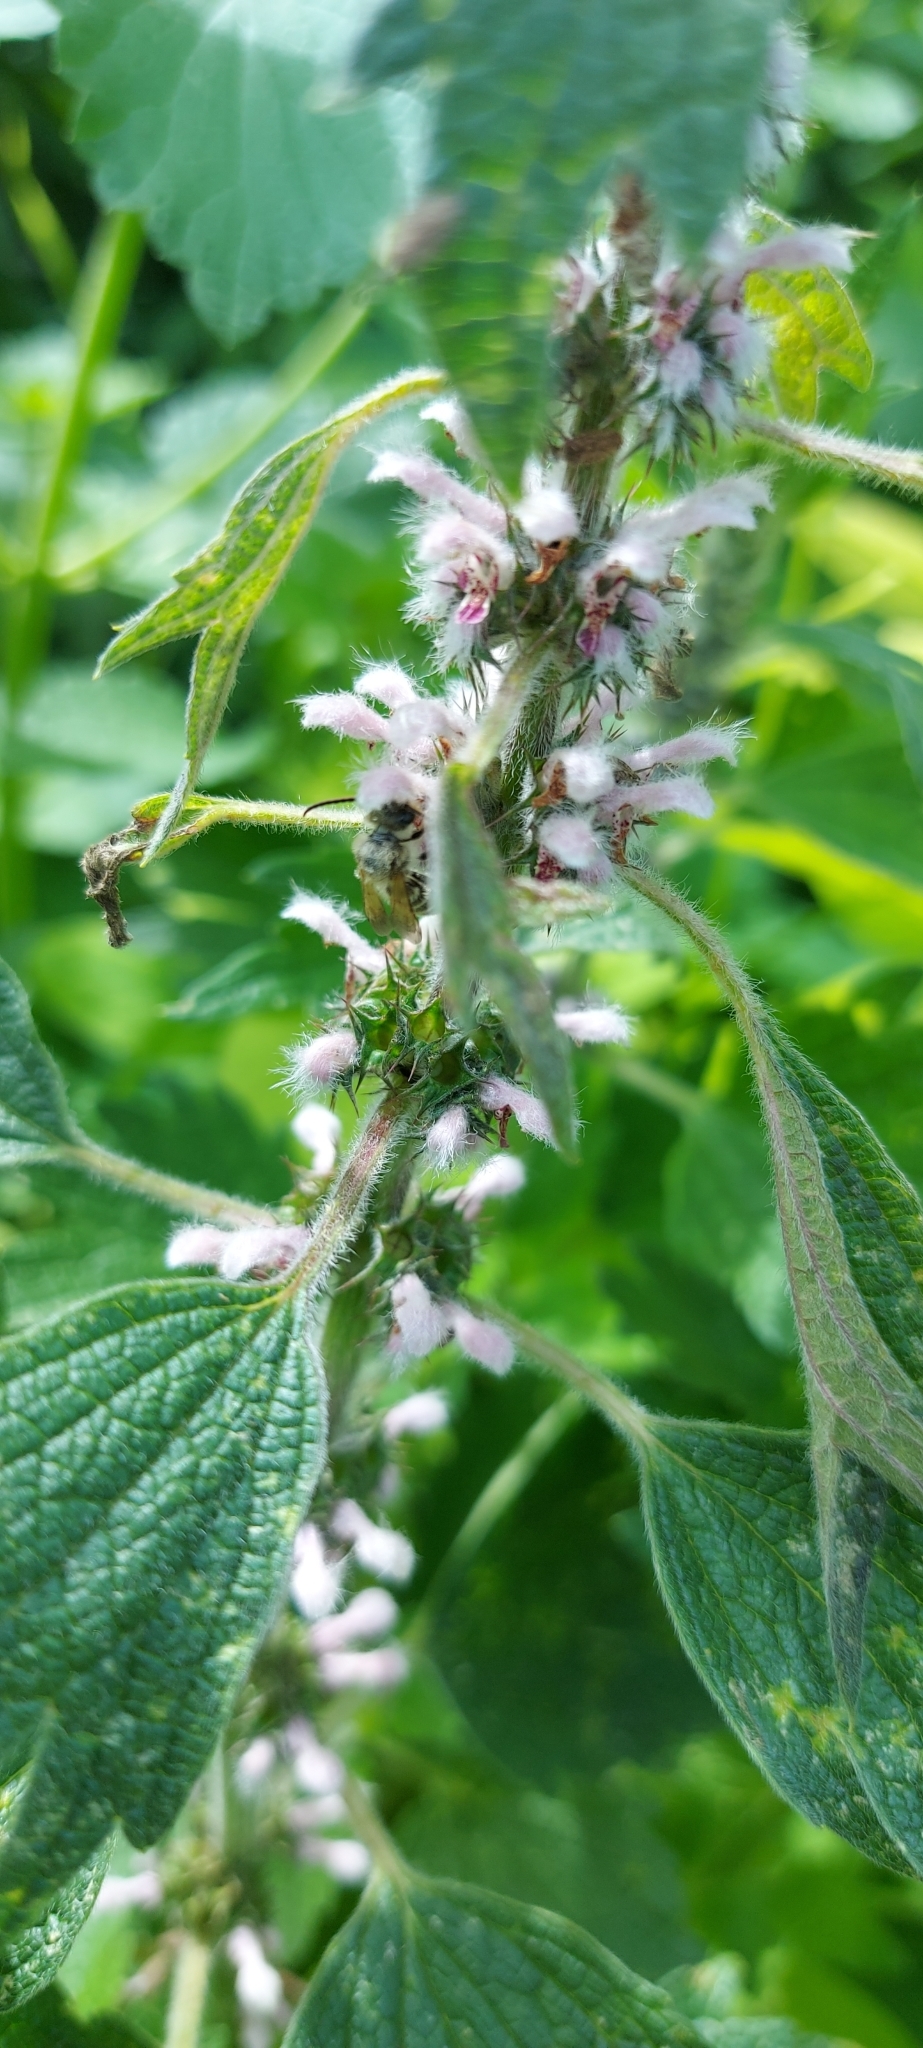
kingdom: Plantae
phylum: Tracheophyta
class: Magnoliopsida
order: Lamiales
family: Lamiaceae
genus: Leonurus
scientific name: Leonurus quinquelobatus
